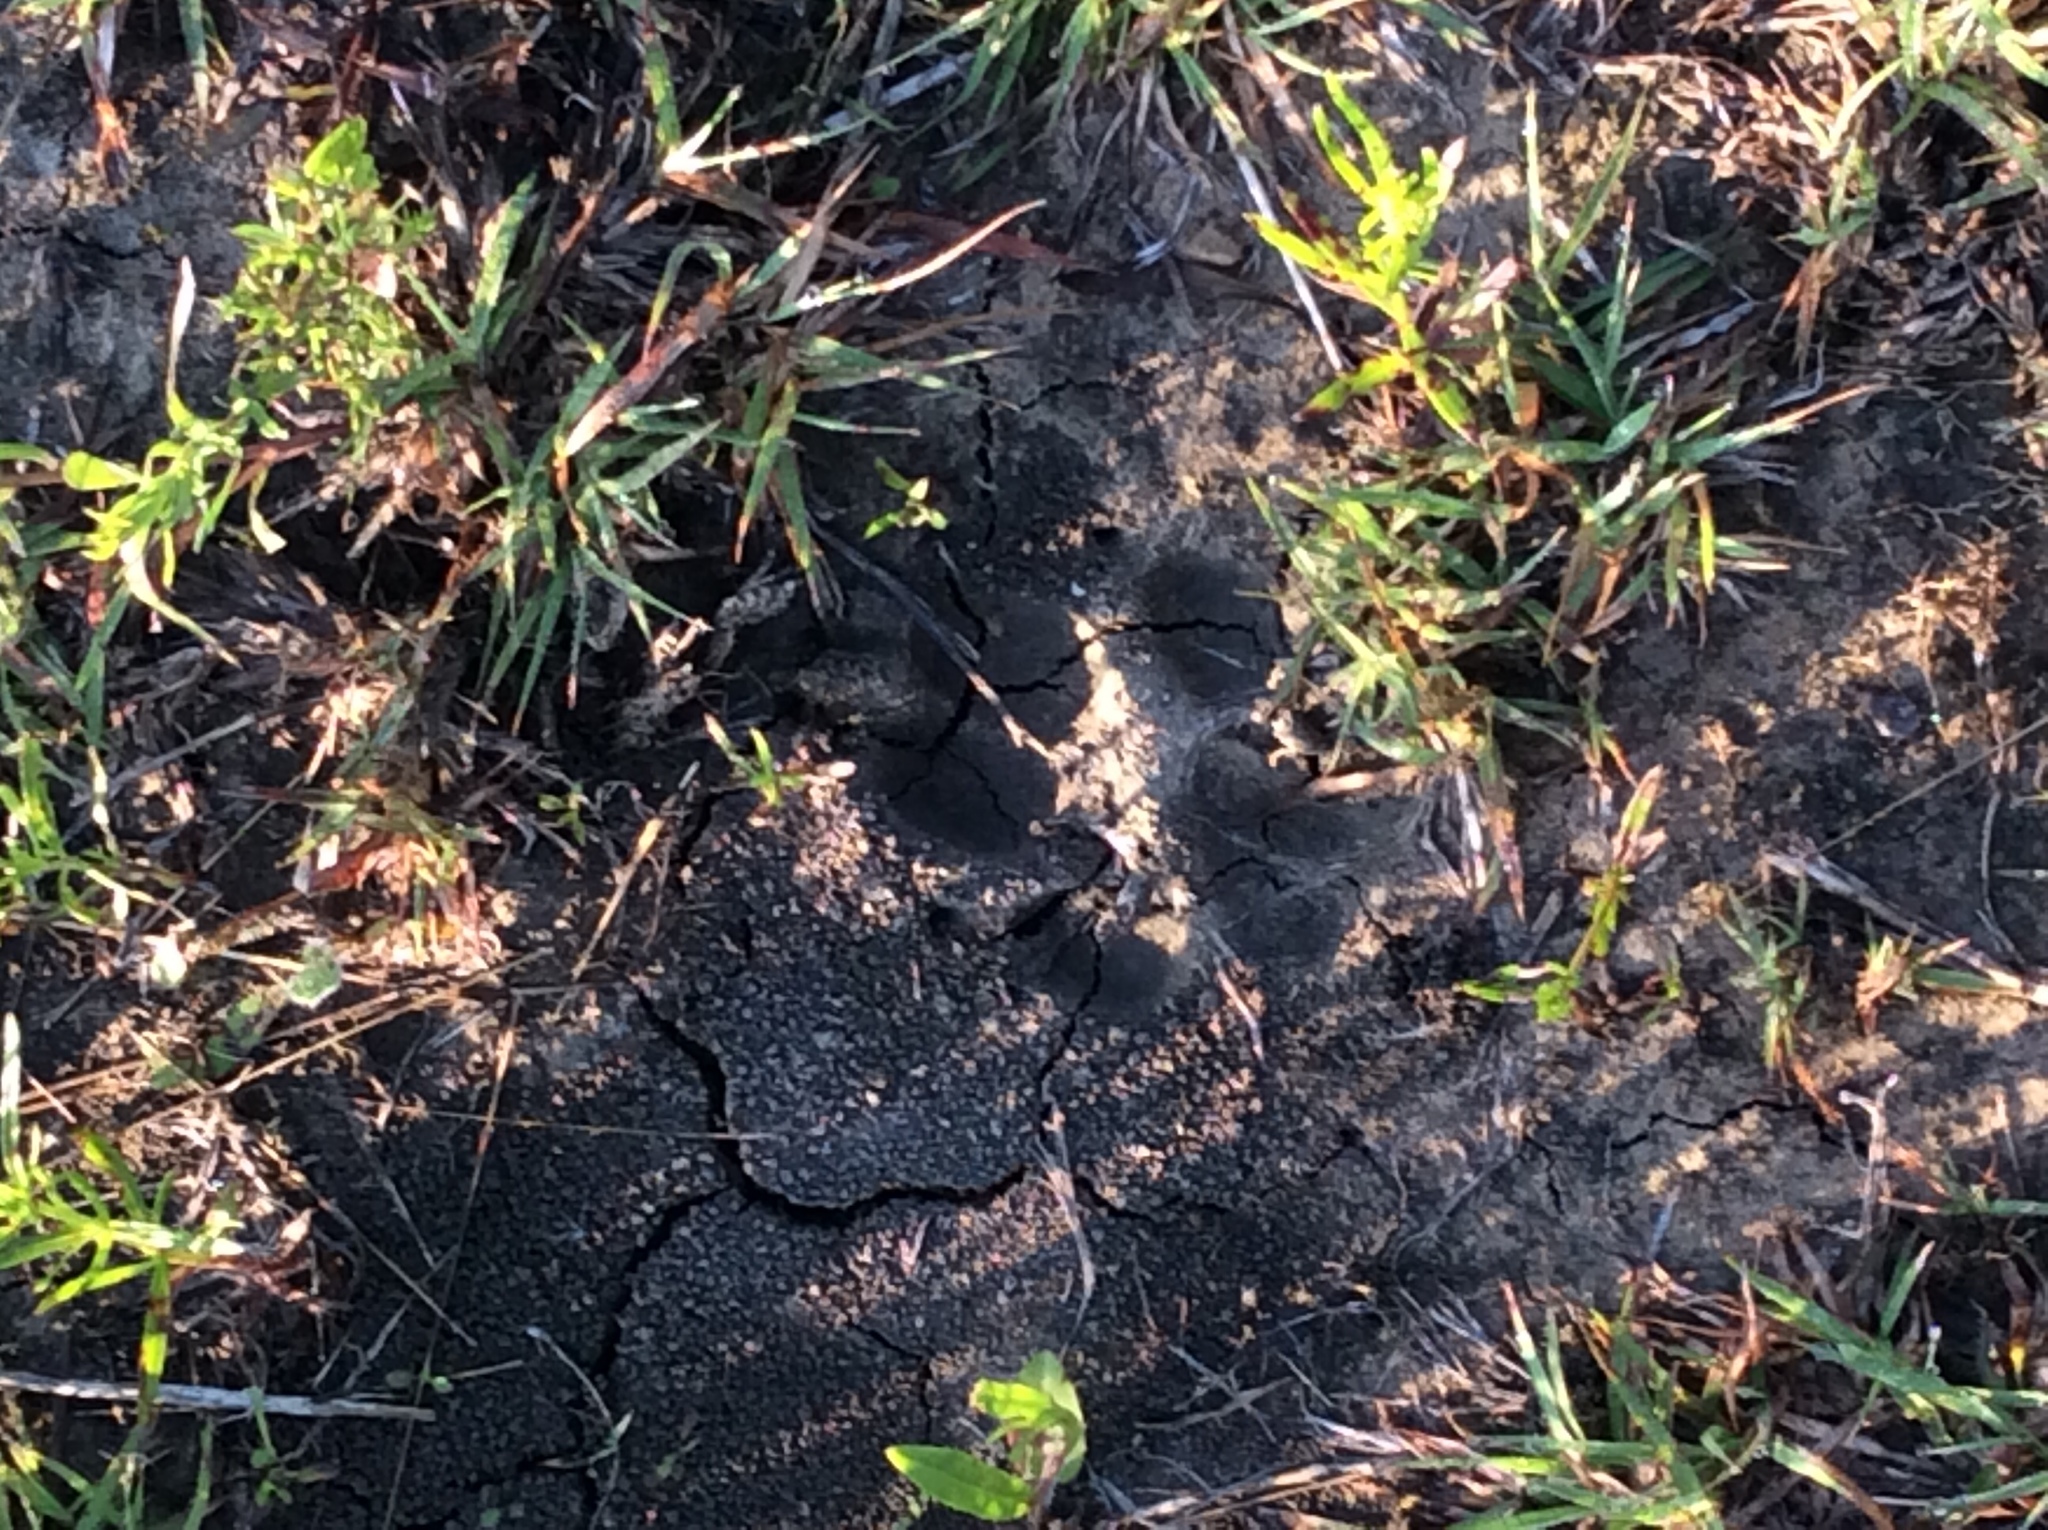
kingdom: Animalia
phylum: Chordata
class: Mammalia
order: Carnivora
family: Canidae
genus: Canis
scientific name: Canis lupus
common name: Gray wolf
